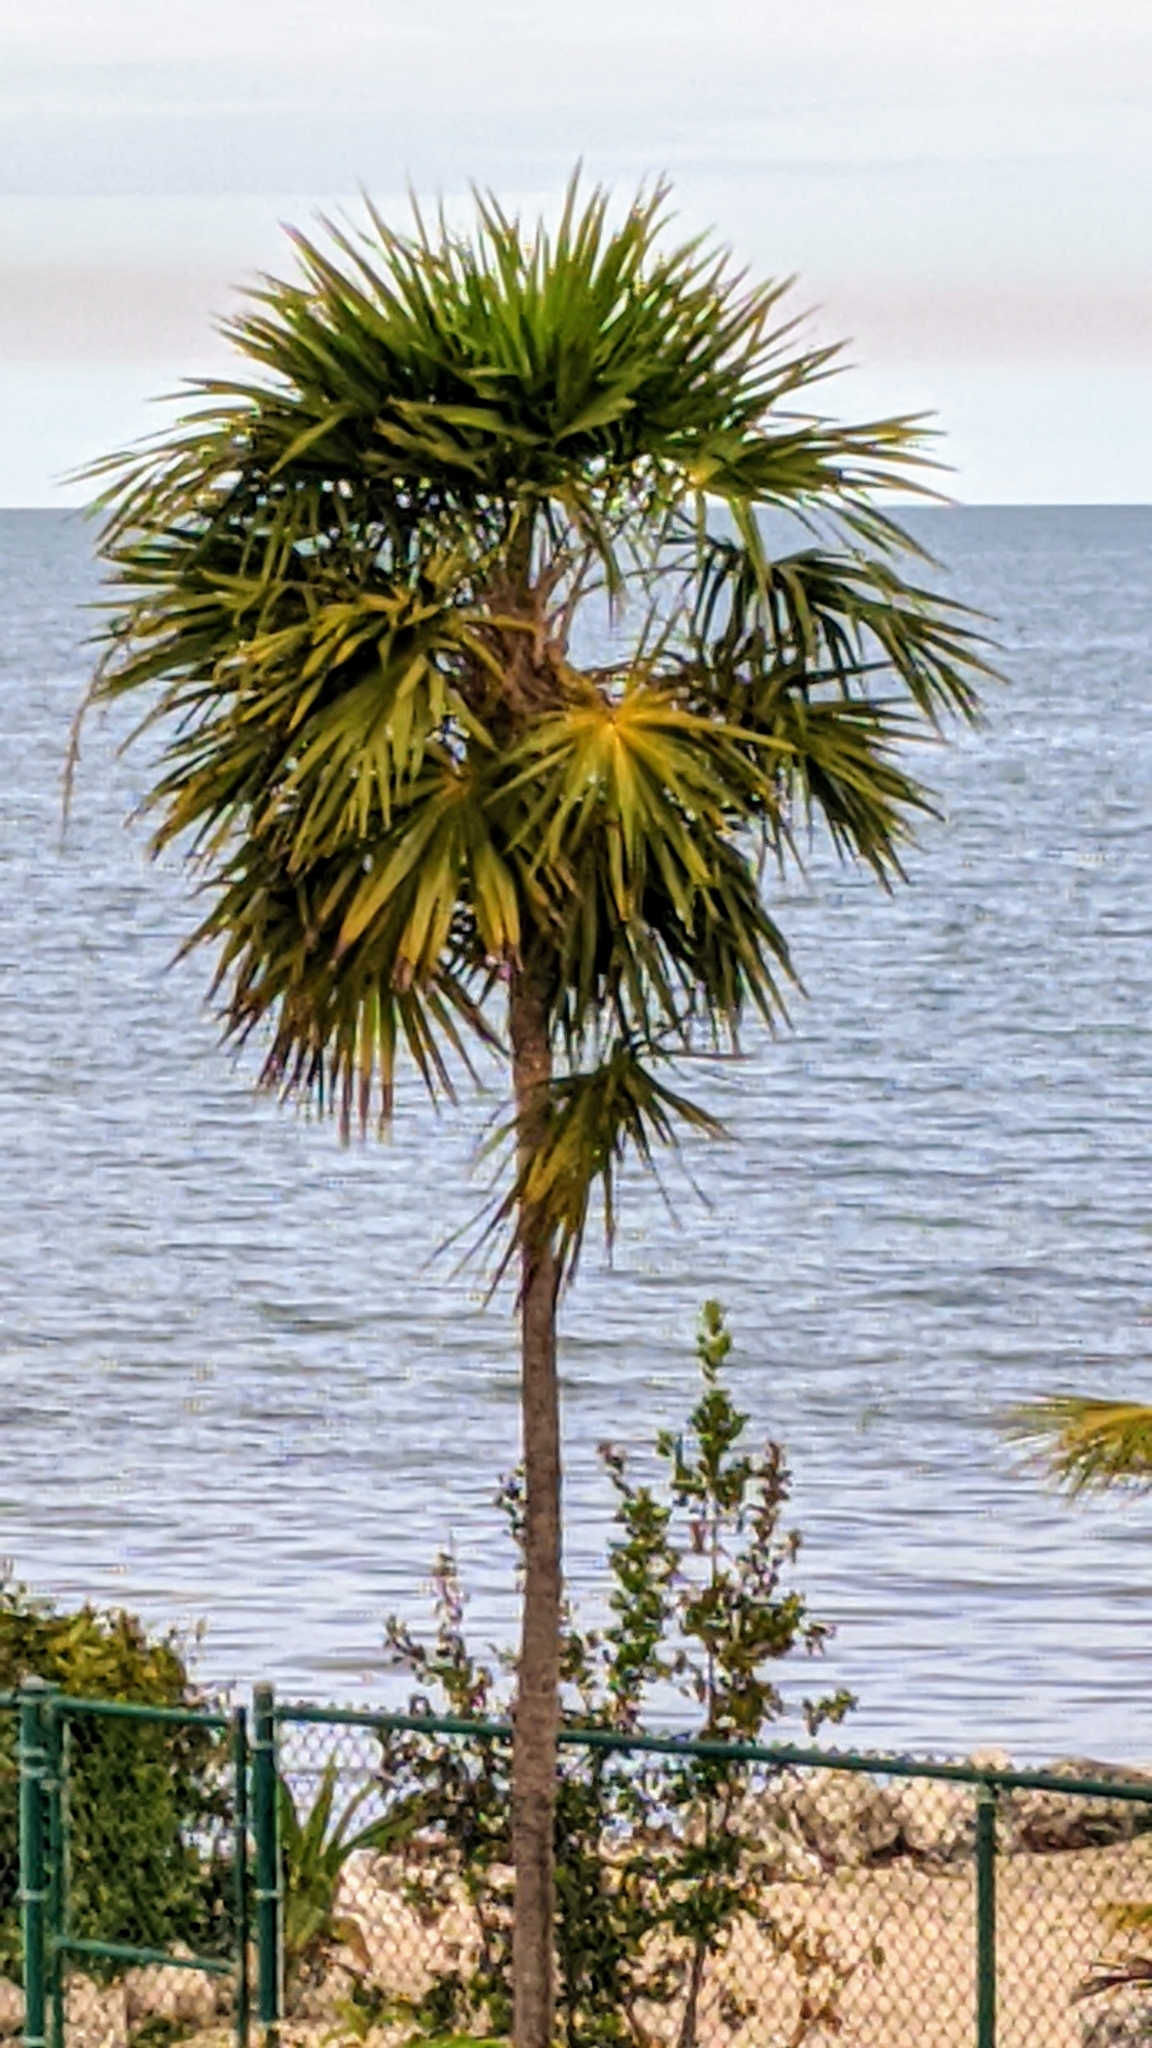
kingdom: Plantae
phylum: Tracheophyta
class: Liliopsida
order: Arecales
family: Arecaceae
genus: Thrinax
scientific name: Thrinax radiata
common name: Florida thatch
